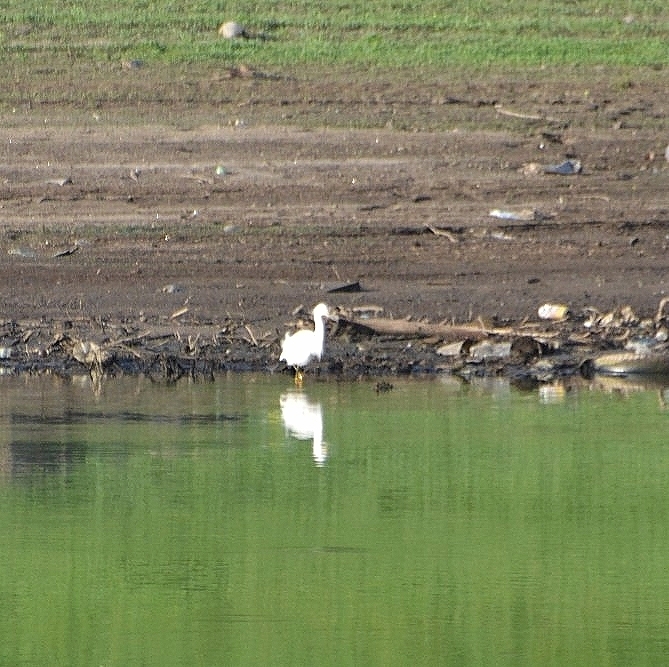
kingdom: Animalia
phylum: Chordata
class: Aves
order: Pelecaniformes
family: Ardeidae
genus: Egretta
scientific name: Egretta thula
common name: Snowy egret
